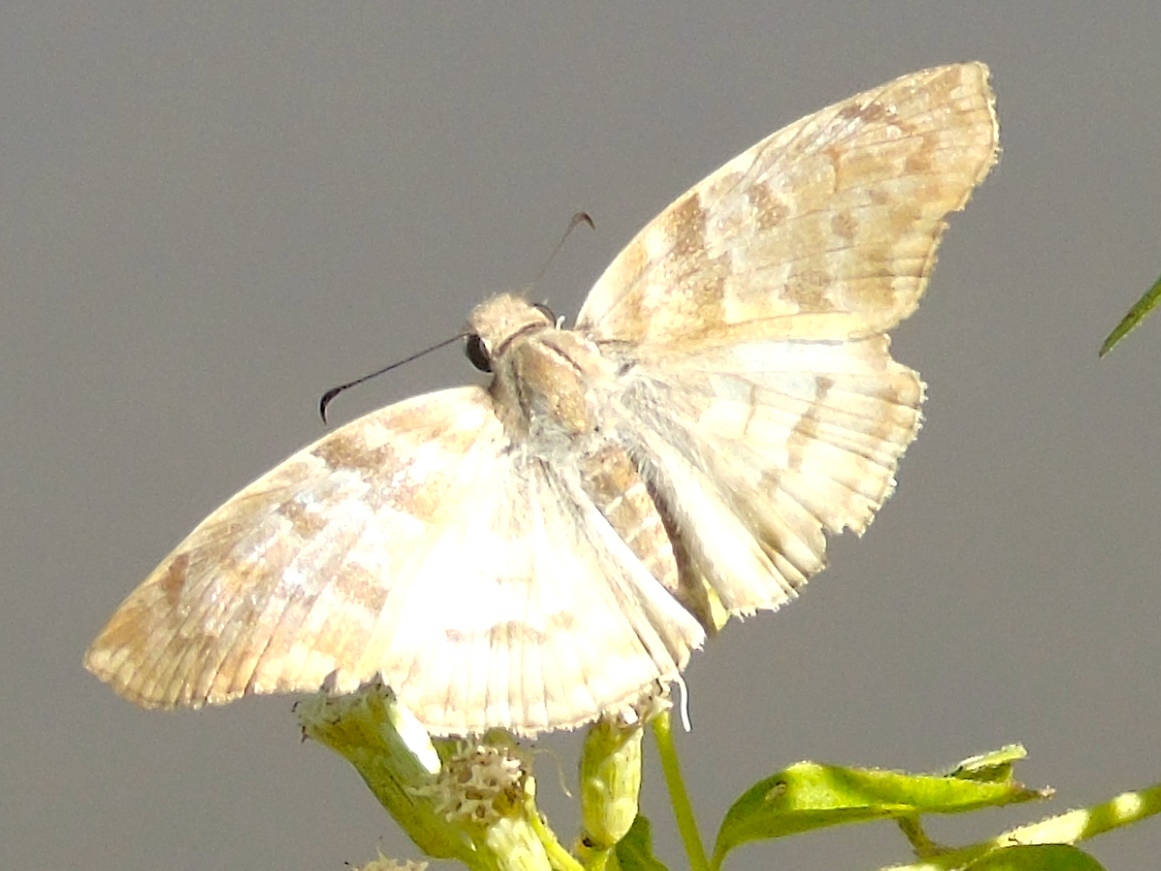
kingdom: Animalia
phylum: Arthropoda
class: Insecta
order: Lepidoptera
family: Hesperiidae
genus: Mylon
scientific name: Mylon
